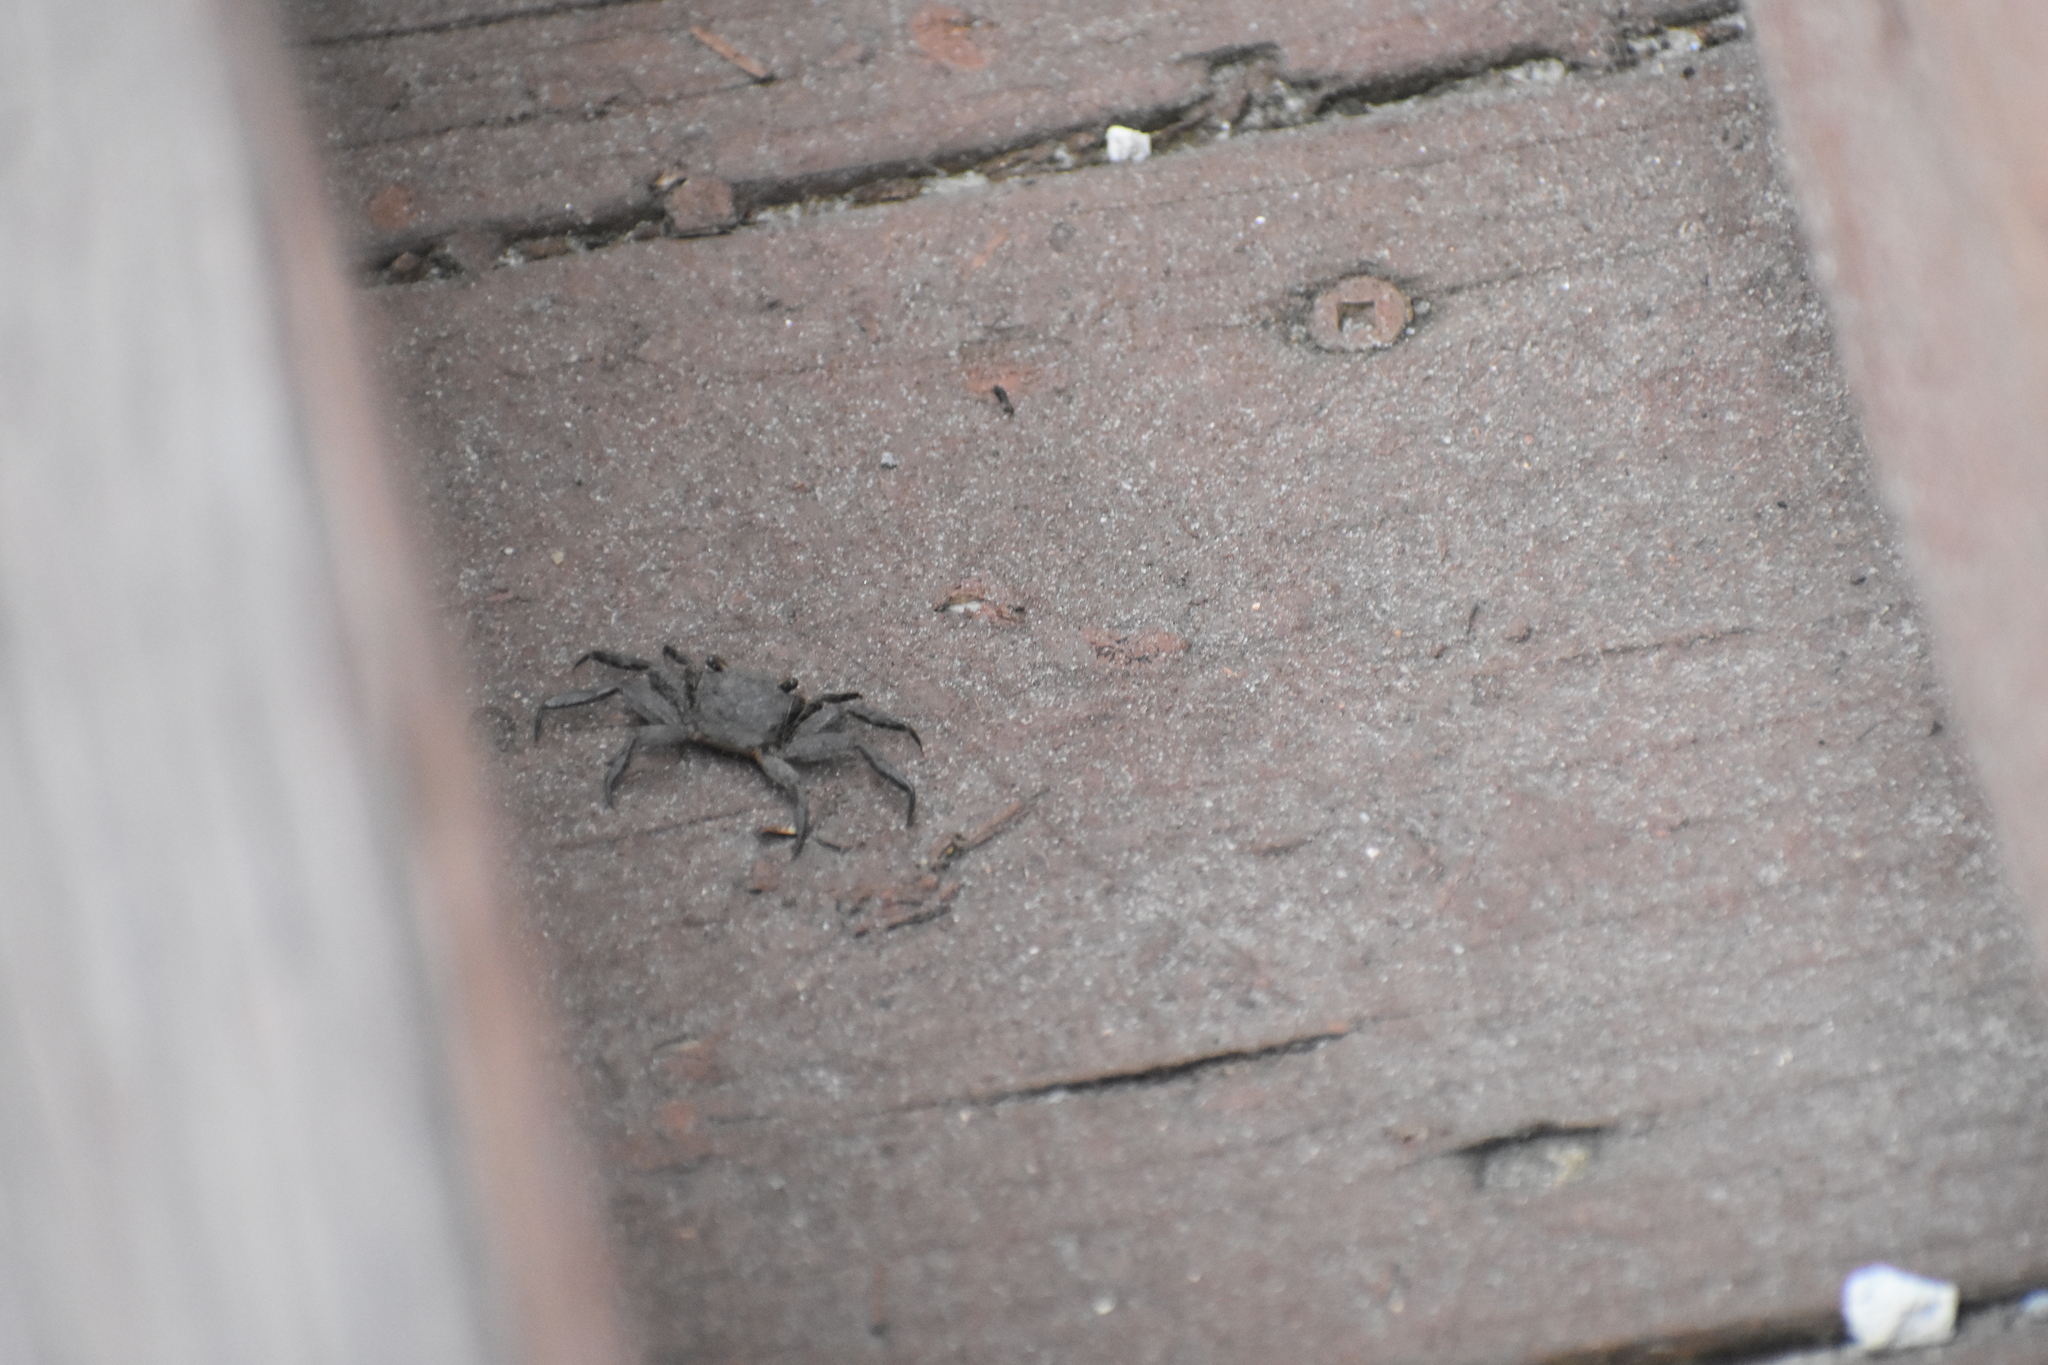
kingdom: Animalia
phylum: Arthropoda
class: Malacostraca
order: Decapoda
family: Sesarmidae
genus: Armases
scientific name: Armases cinereum
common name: Squareback marsh crab
